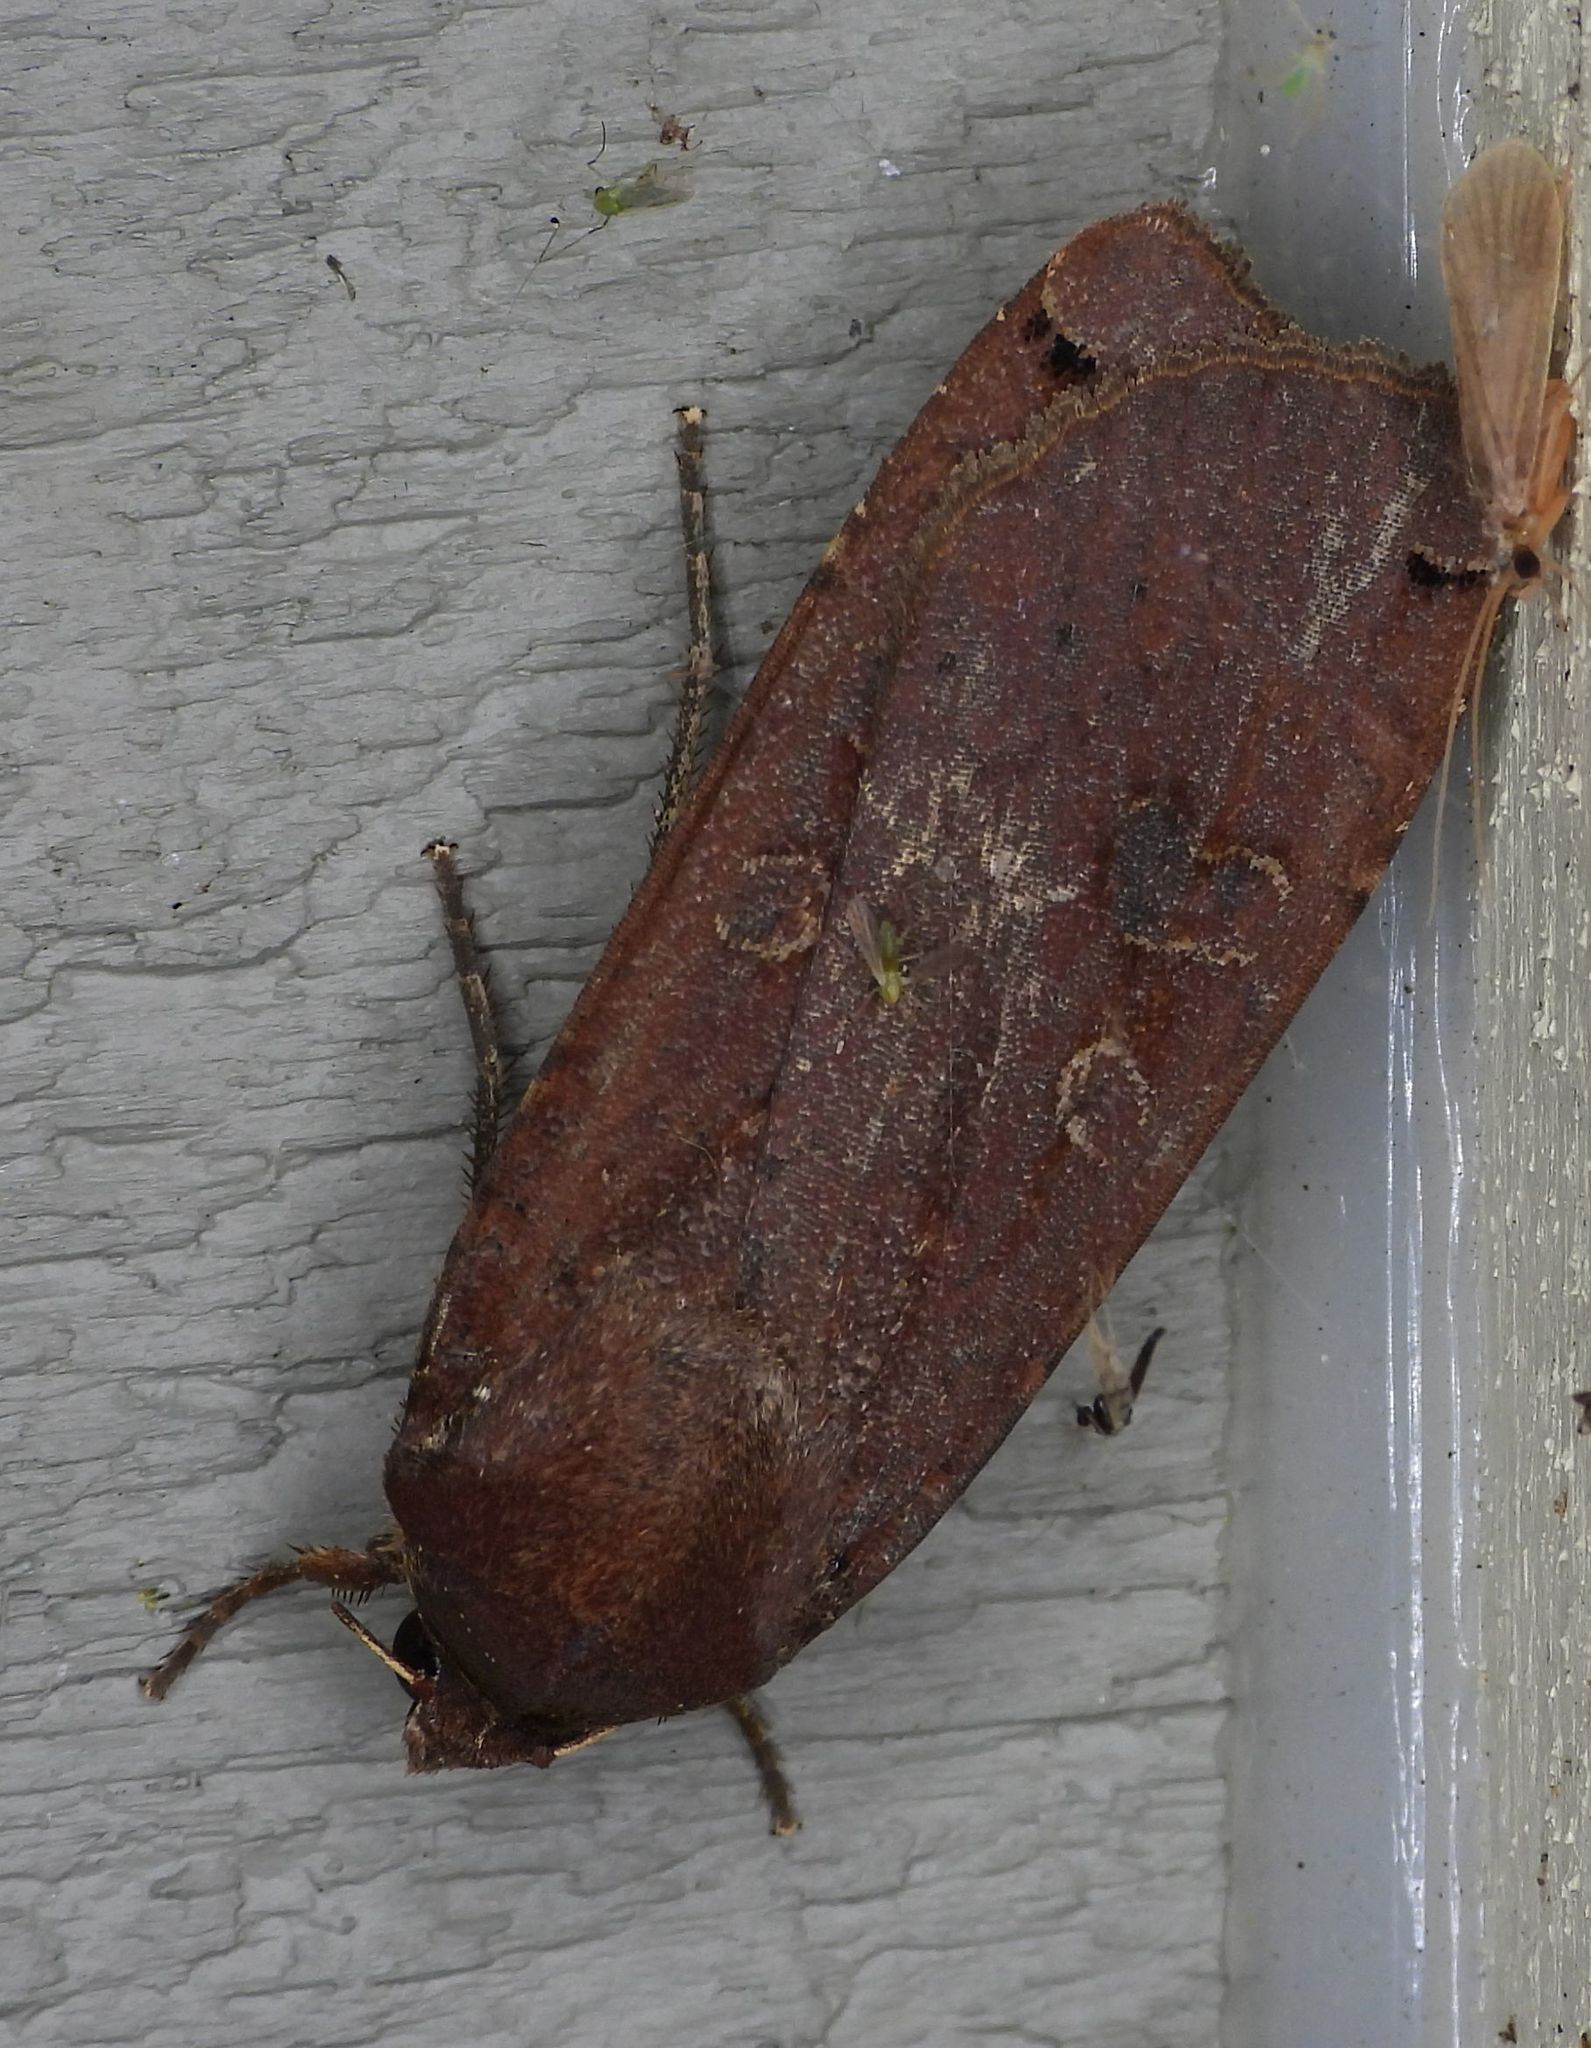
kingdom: Animalia
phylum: Arthropoda
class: Insecta
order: Lepidoptera
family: Noctuidae
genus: Noctua
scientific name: Noctua pronuba
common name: Large yellow underwing
